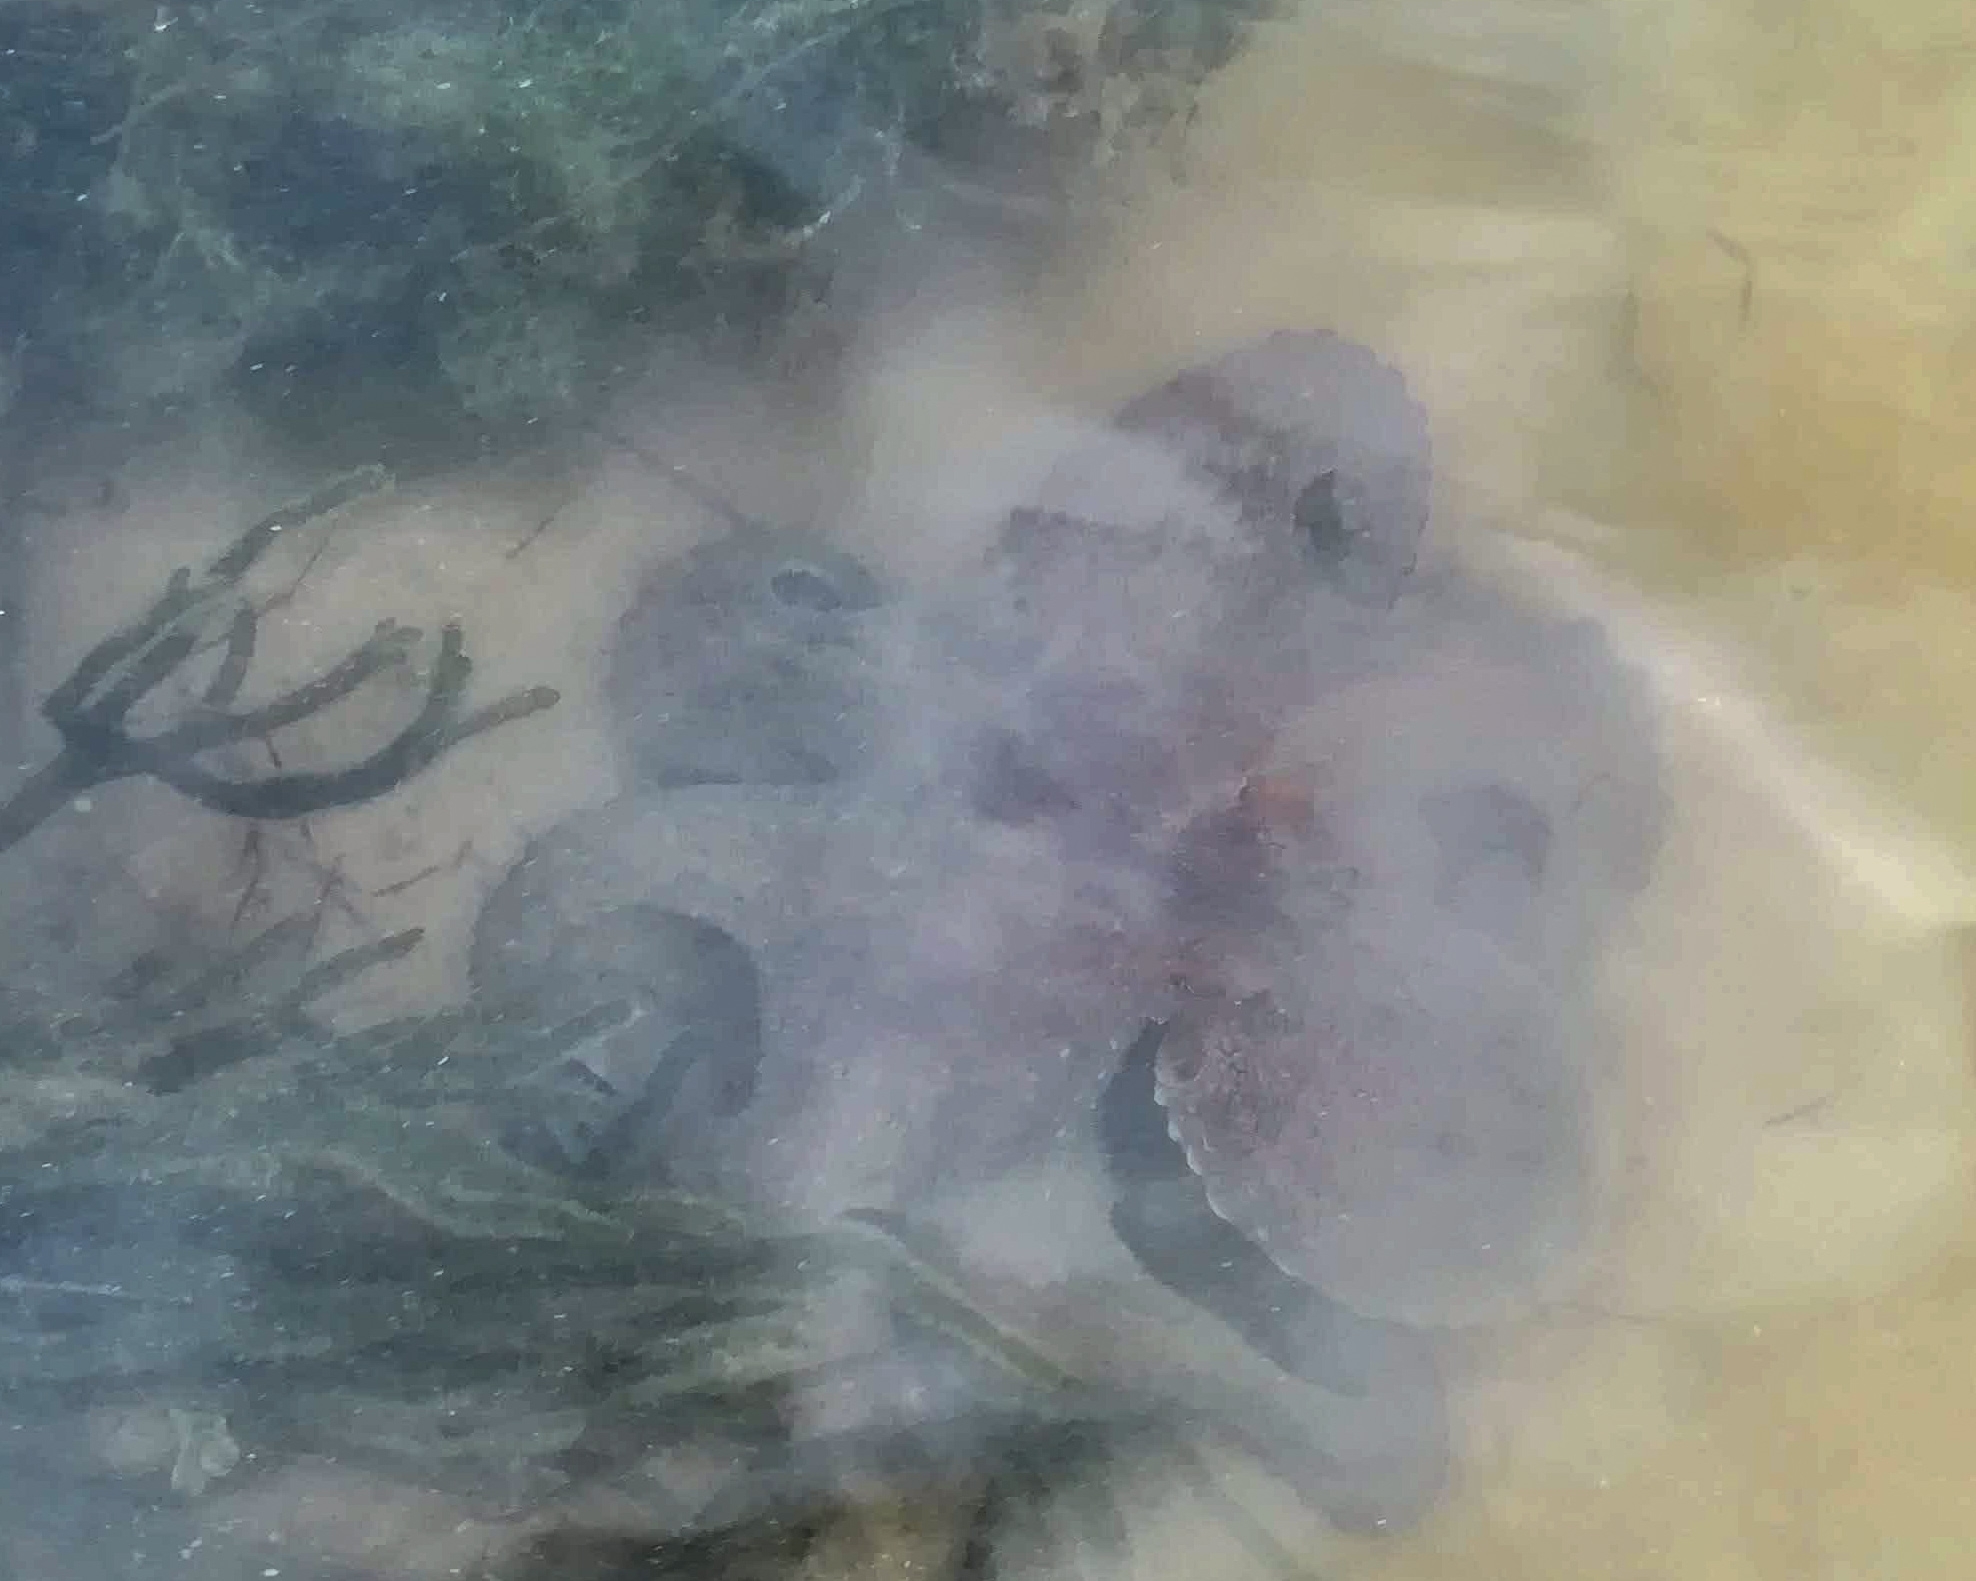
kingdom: Animalia
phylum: Mollusca
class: Cephalopoda
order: Octopoda
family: Octopodidae
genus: Octopus
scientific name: Octopus vulgaris
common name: Common octopus
